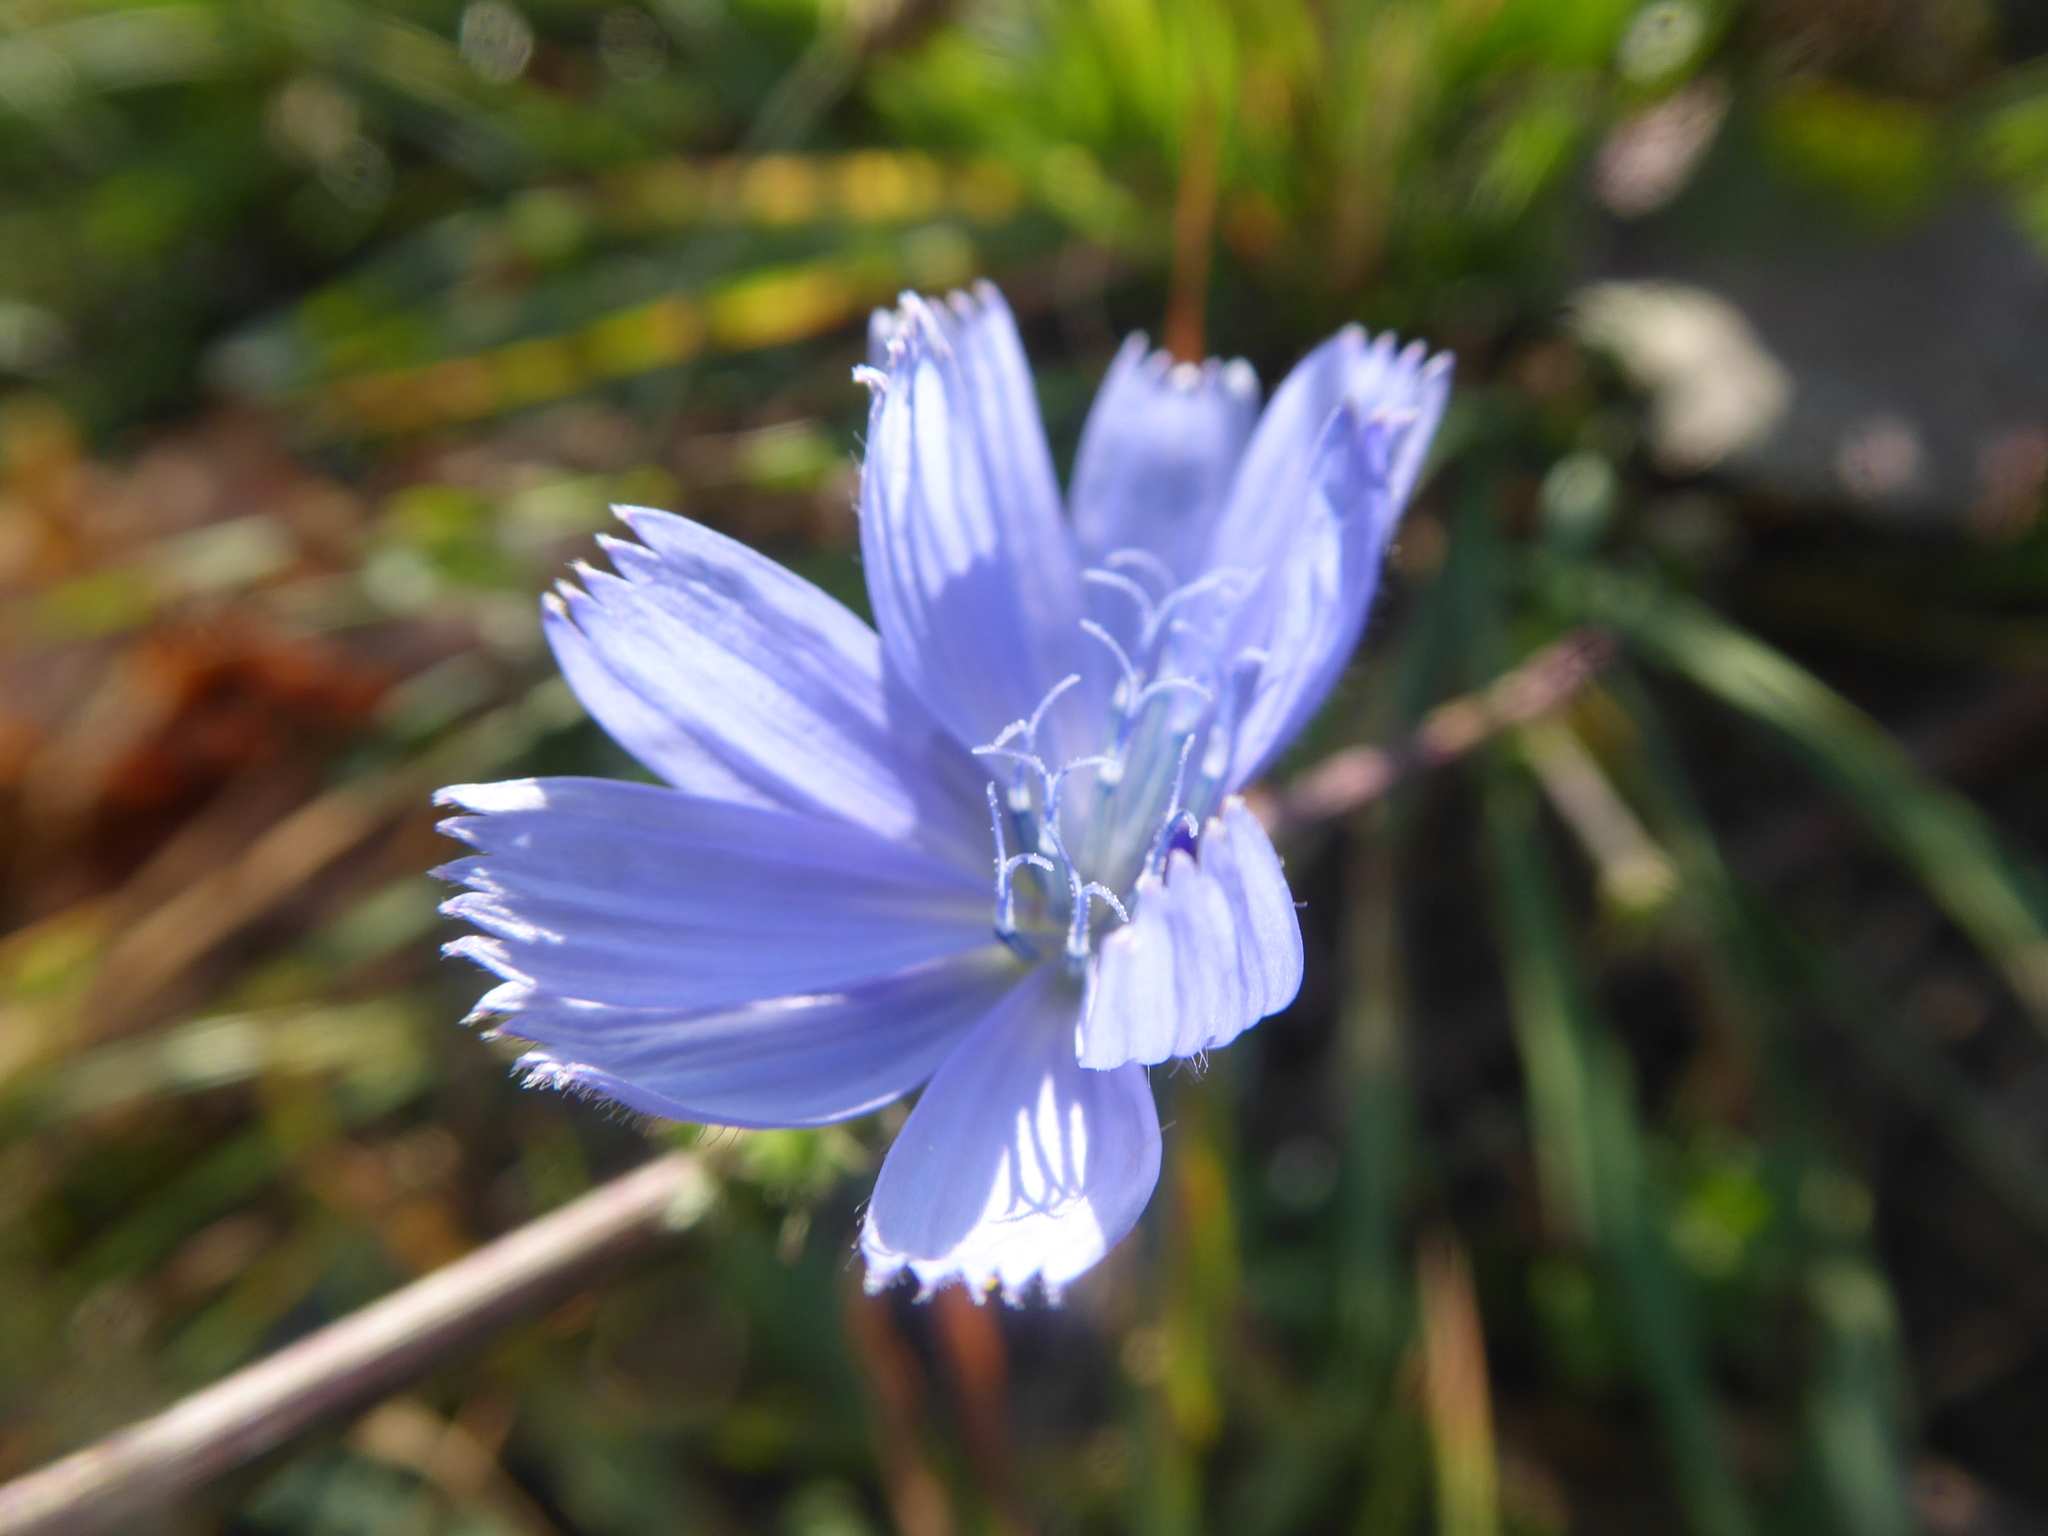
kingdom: Plantae
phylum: Tracheophyta
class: Magnoliopsida
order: Asterales
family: Asteraceae
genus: Cichorium
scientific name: Cichorium intybus
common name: Chicory
